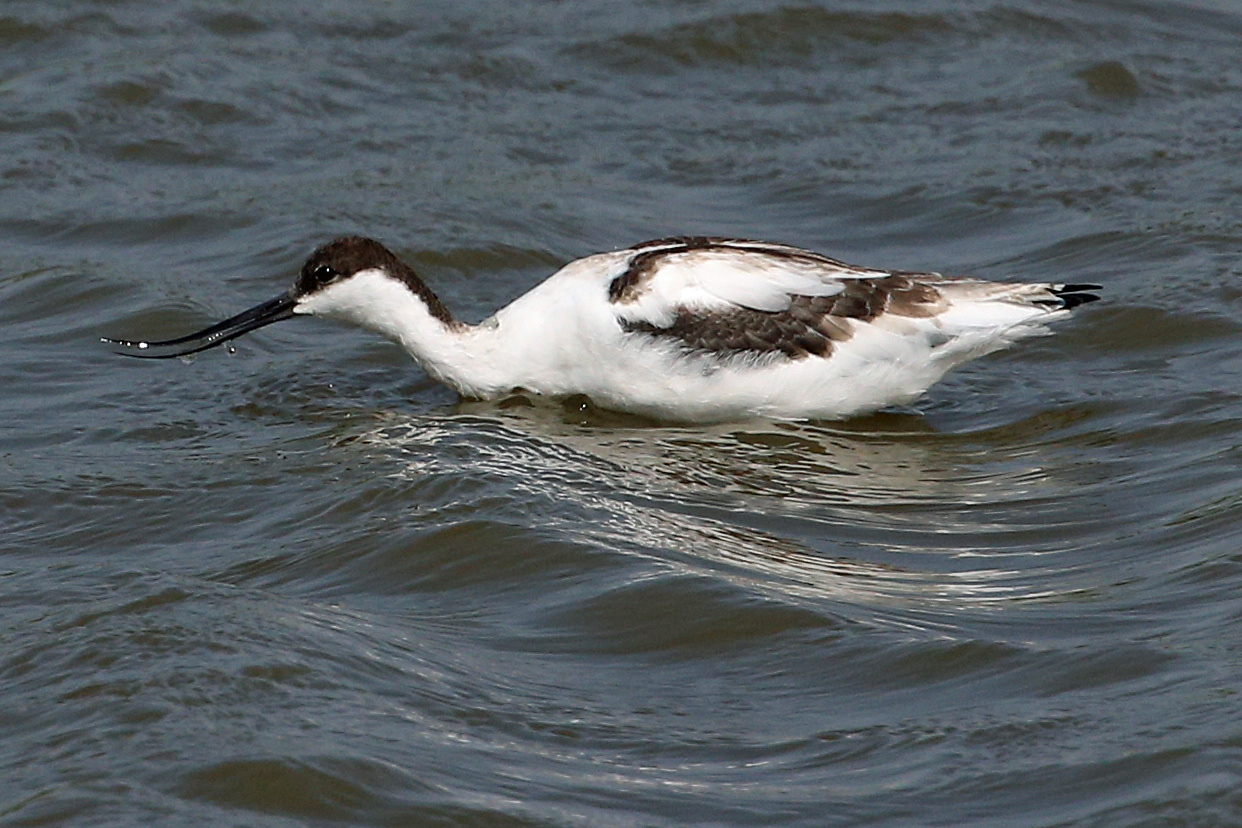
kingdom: Animalia
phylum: Chordata
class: Aves
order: Charadriiformes
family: Recurvirostridae
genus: Recurvirostra
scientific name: Recurvirostra avosetta
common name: Pied avocet
